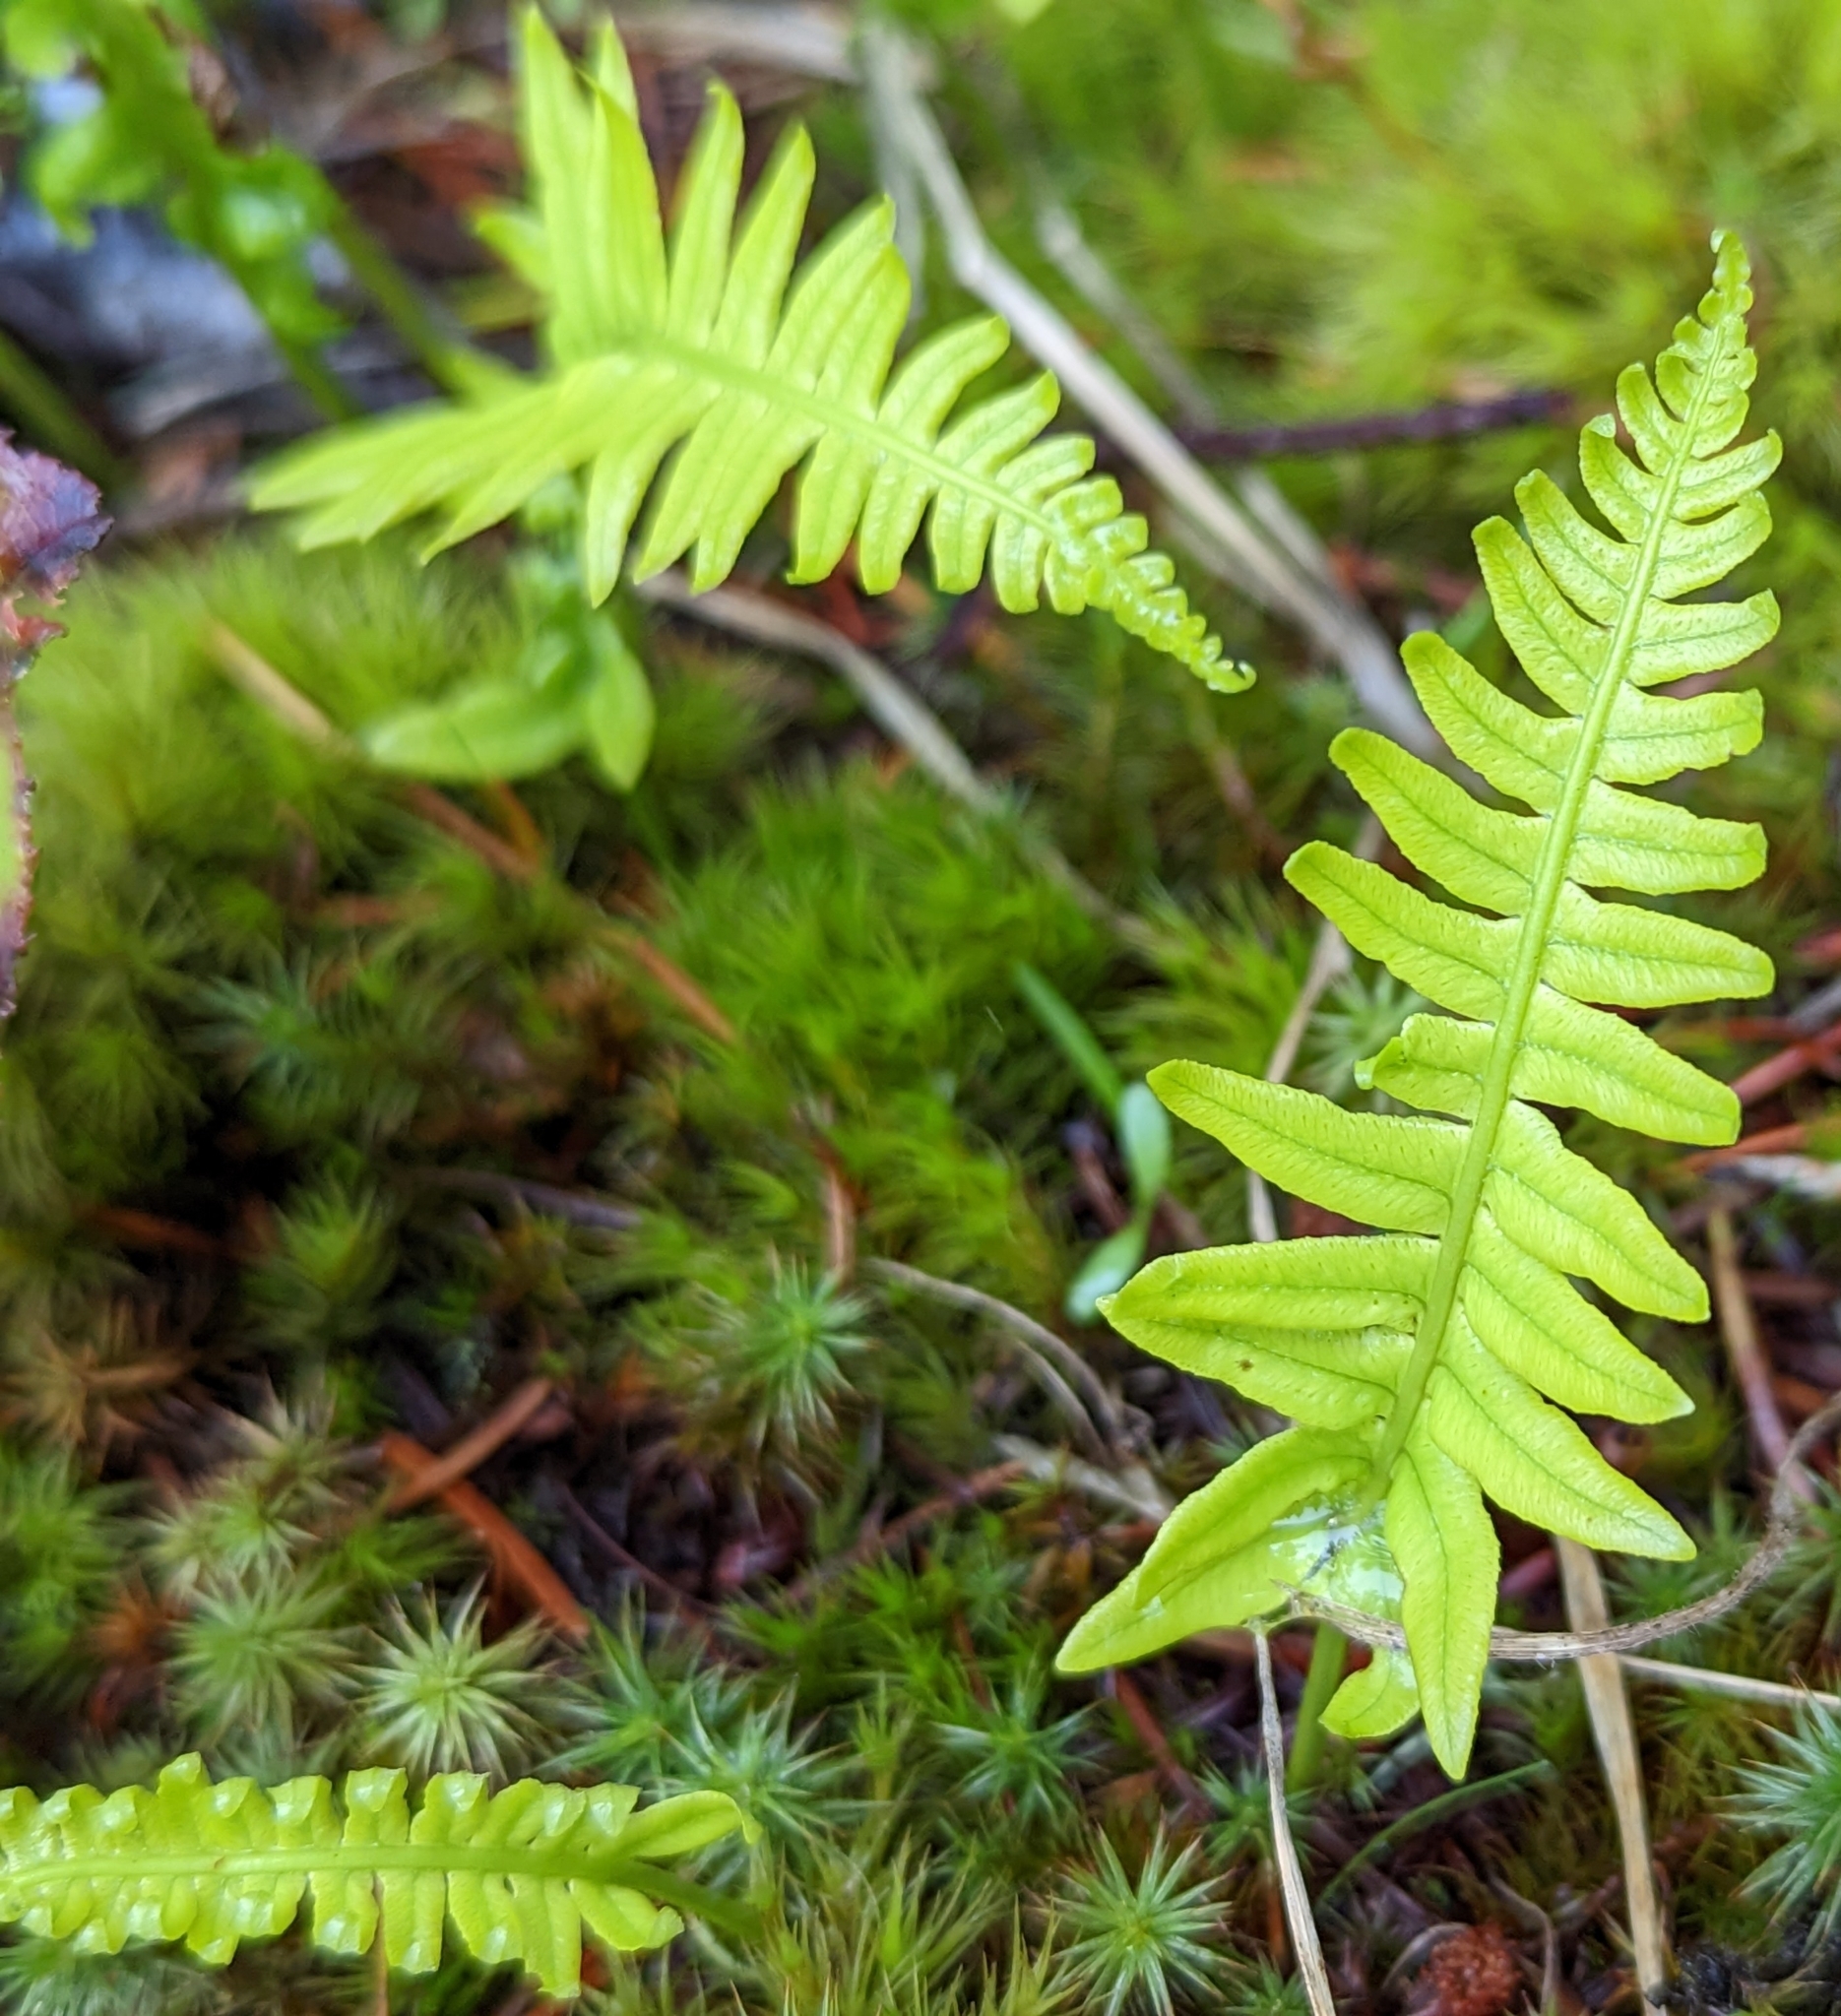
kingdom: Plantae
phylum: Tracheophyta
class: Polypodiopsida
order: Polypodiales
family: Polypodiaceae
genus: Polypodium
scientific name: Polypodium glycyrrhiza
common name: Licorice fern
